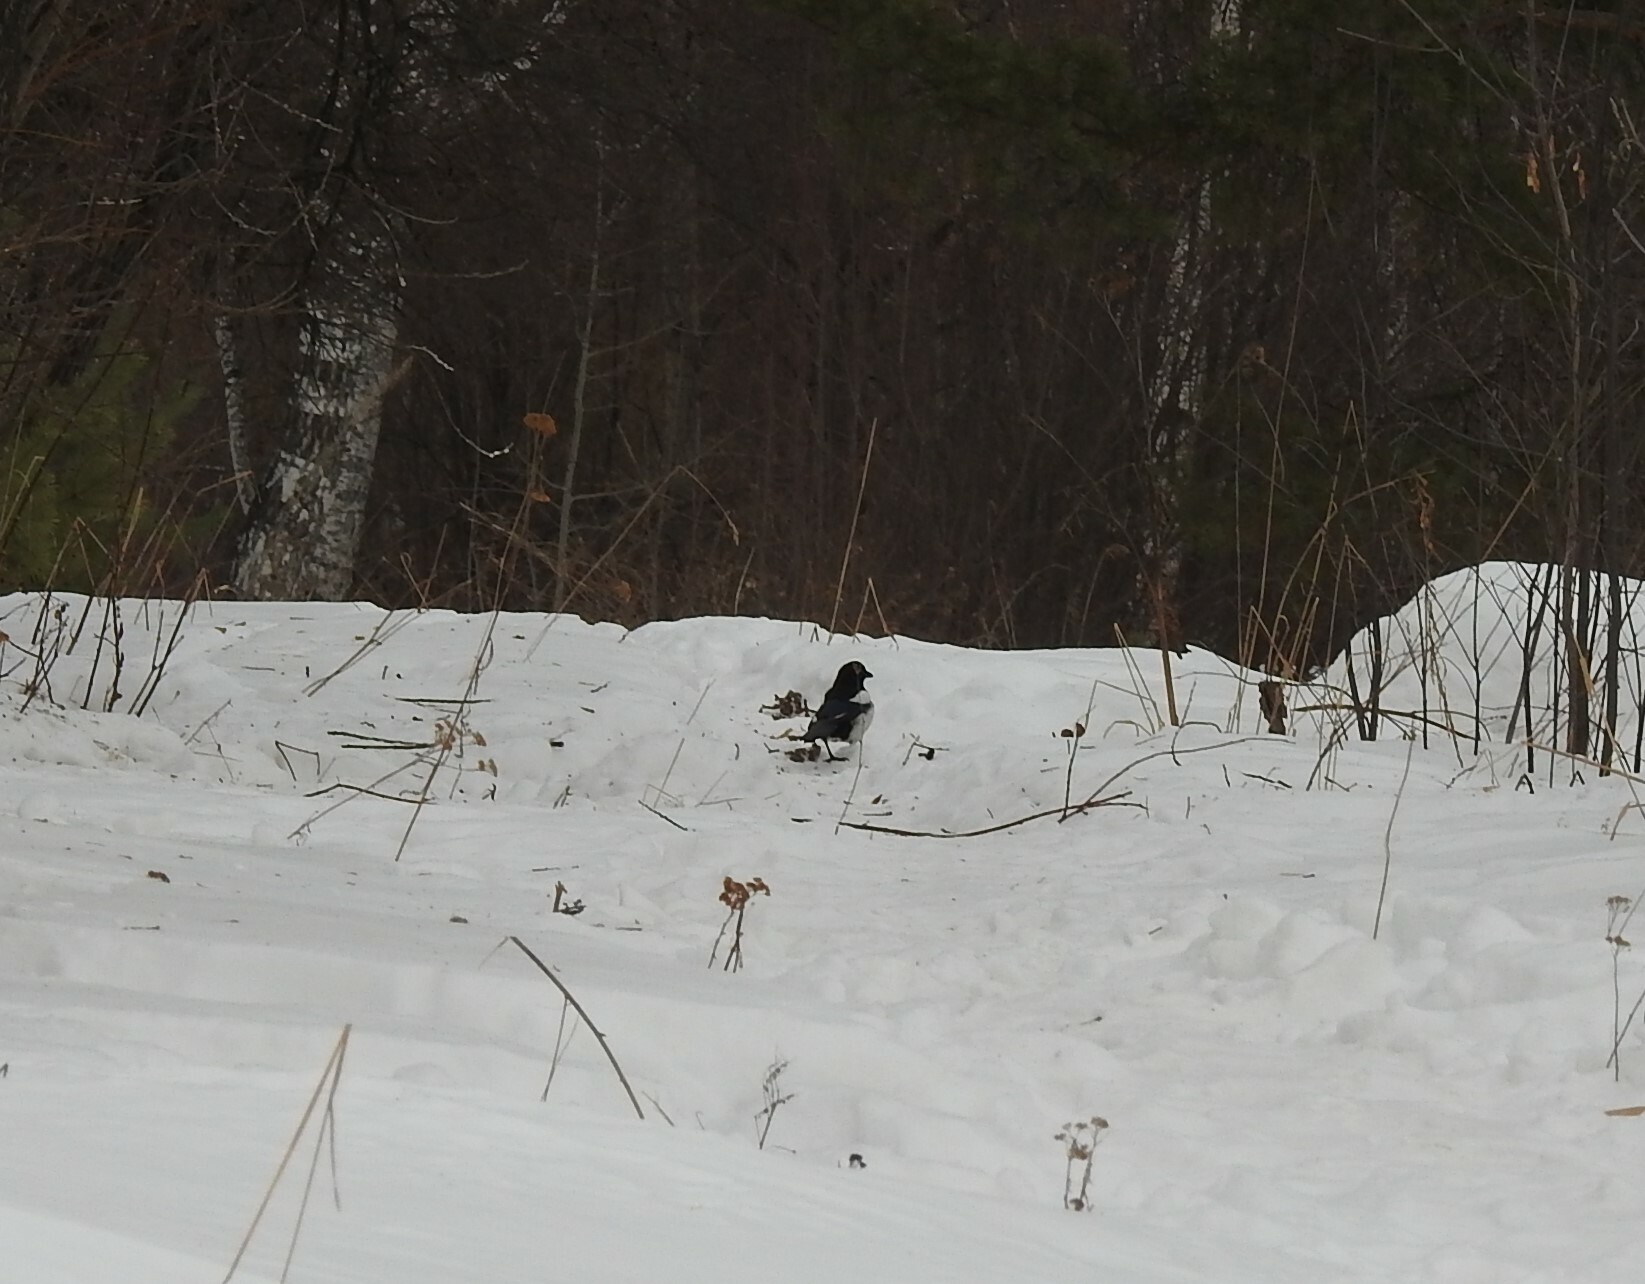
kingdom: Animalia
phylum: Chordata
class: Aves
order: Passeriformes
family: Corvidae
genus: Pica
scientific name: Pica pica
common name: Eurasian magpie
